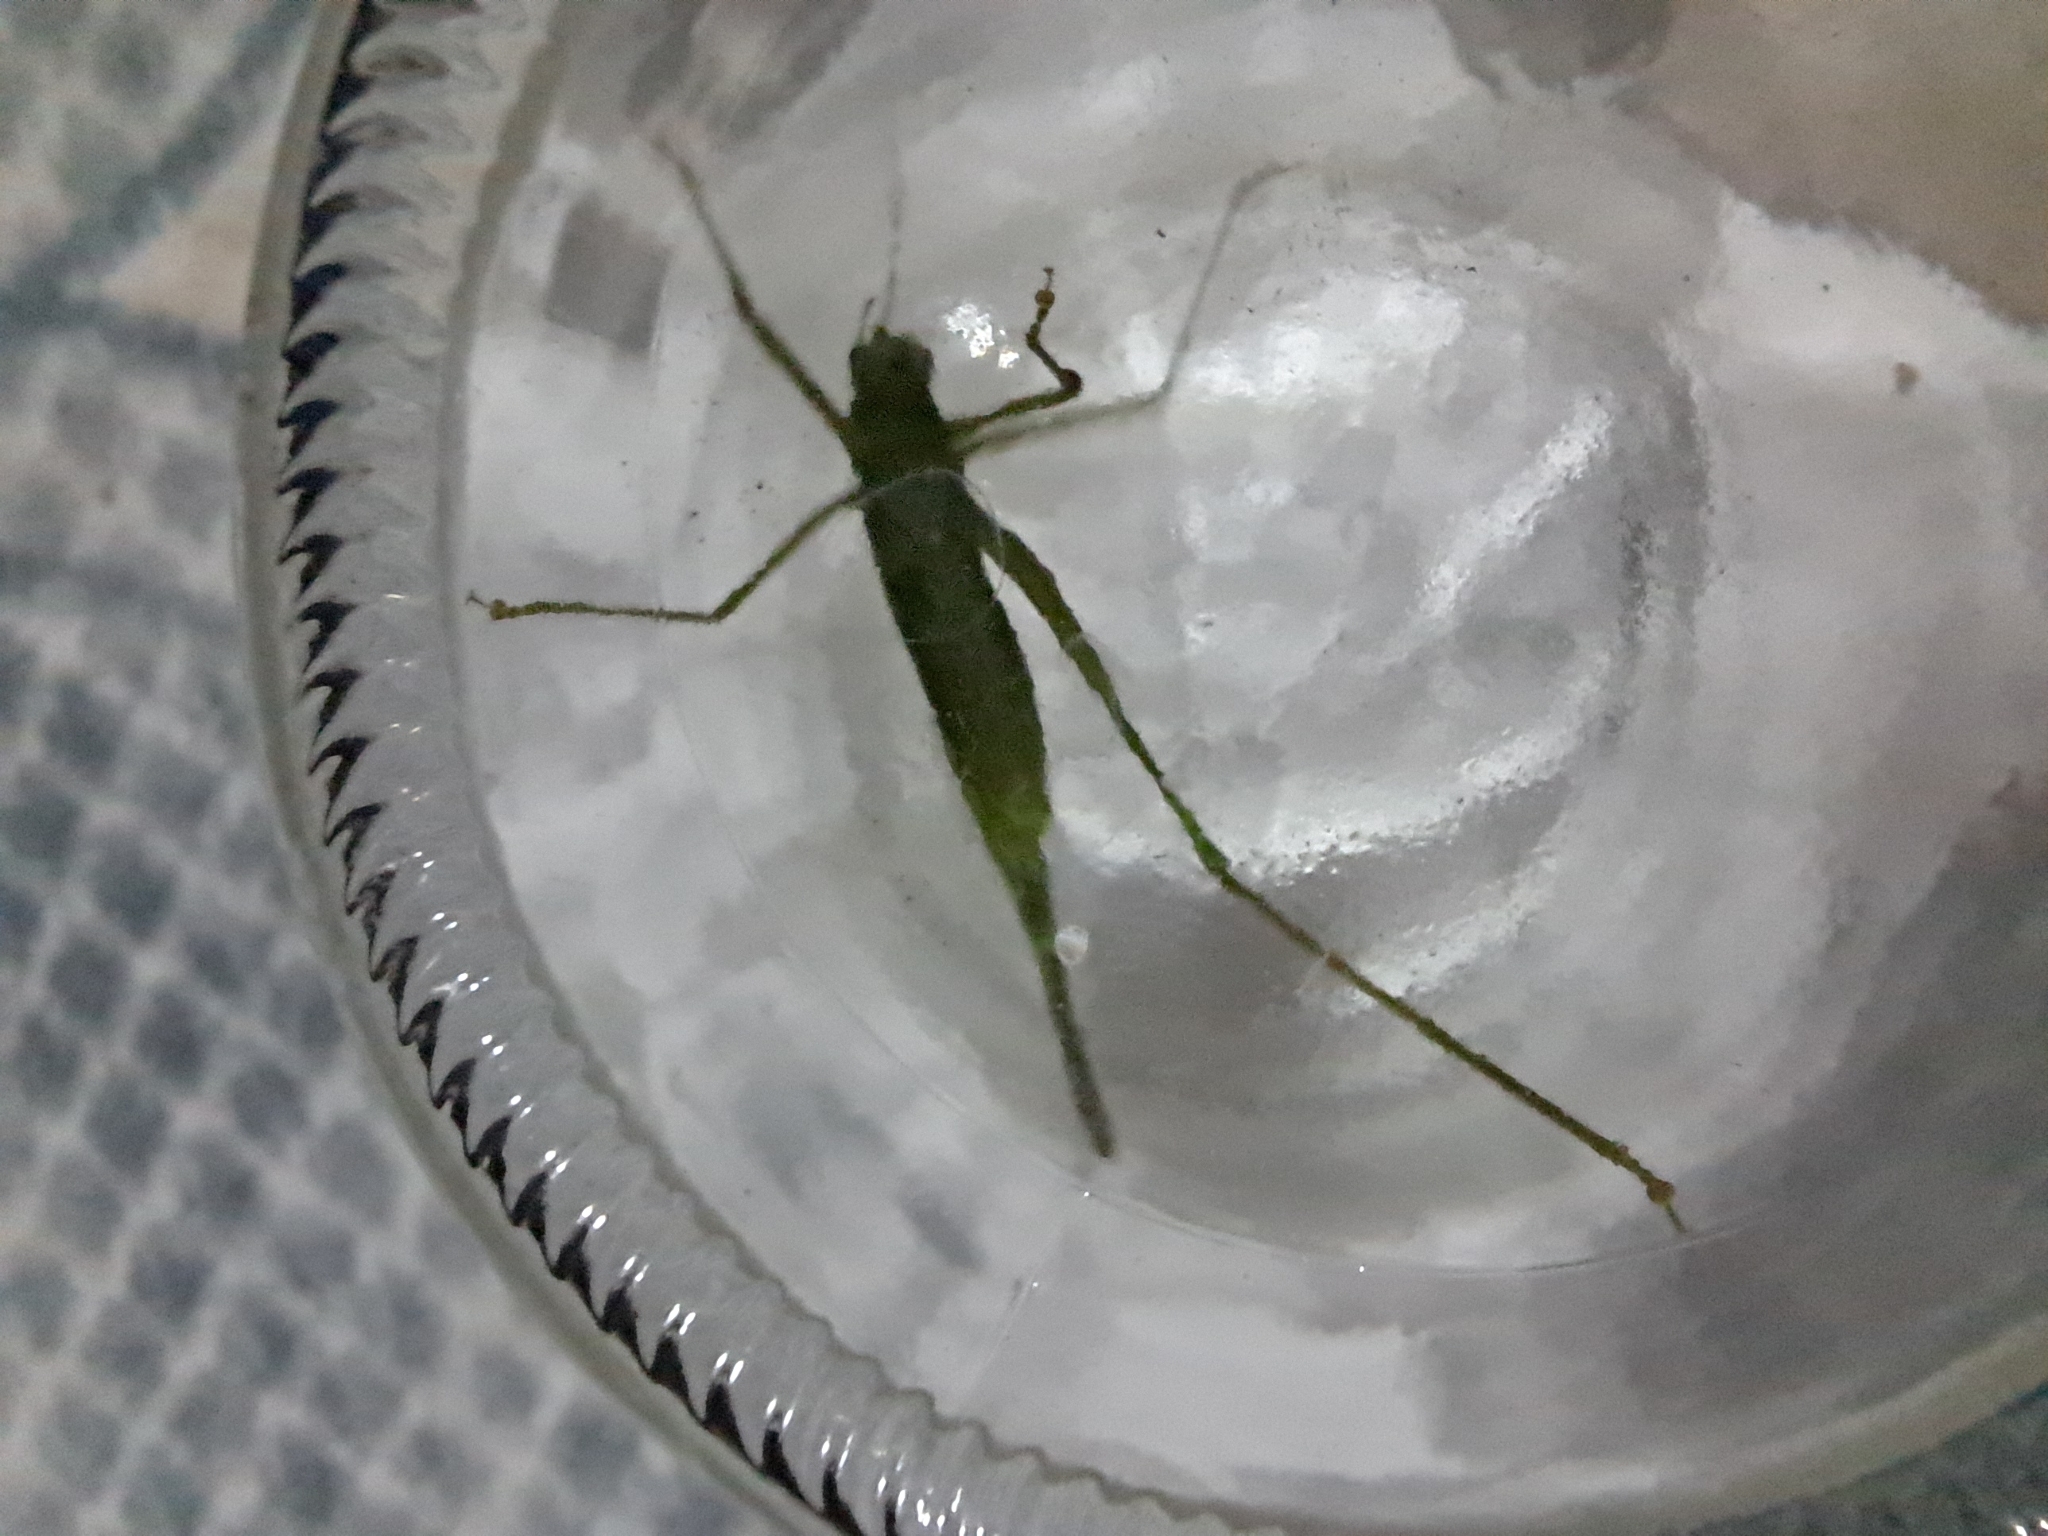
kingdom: Animalia
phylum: Arthropoda
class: Insecta
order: Orthoptera
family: Tettigoniidae
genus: Phaneroptera
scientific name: Phaneroptera nana
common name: Southern sickle bush-cricket
